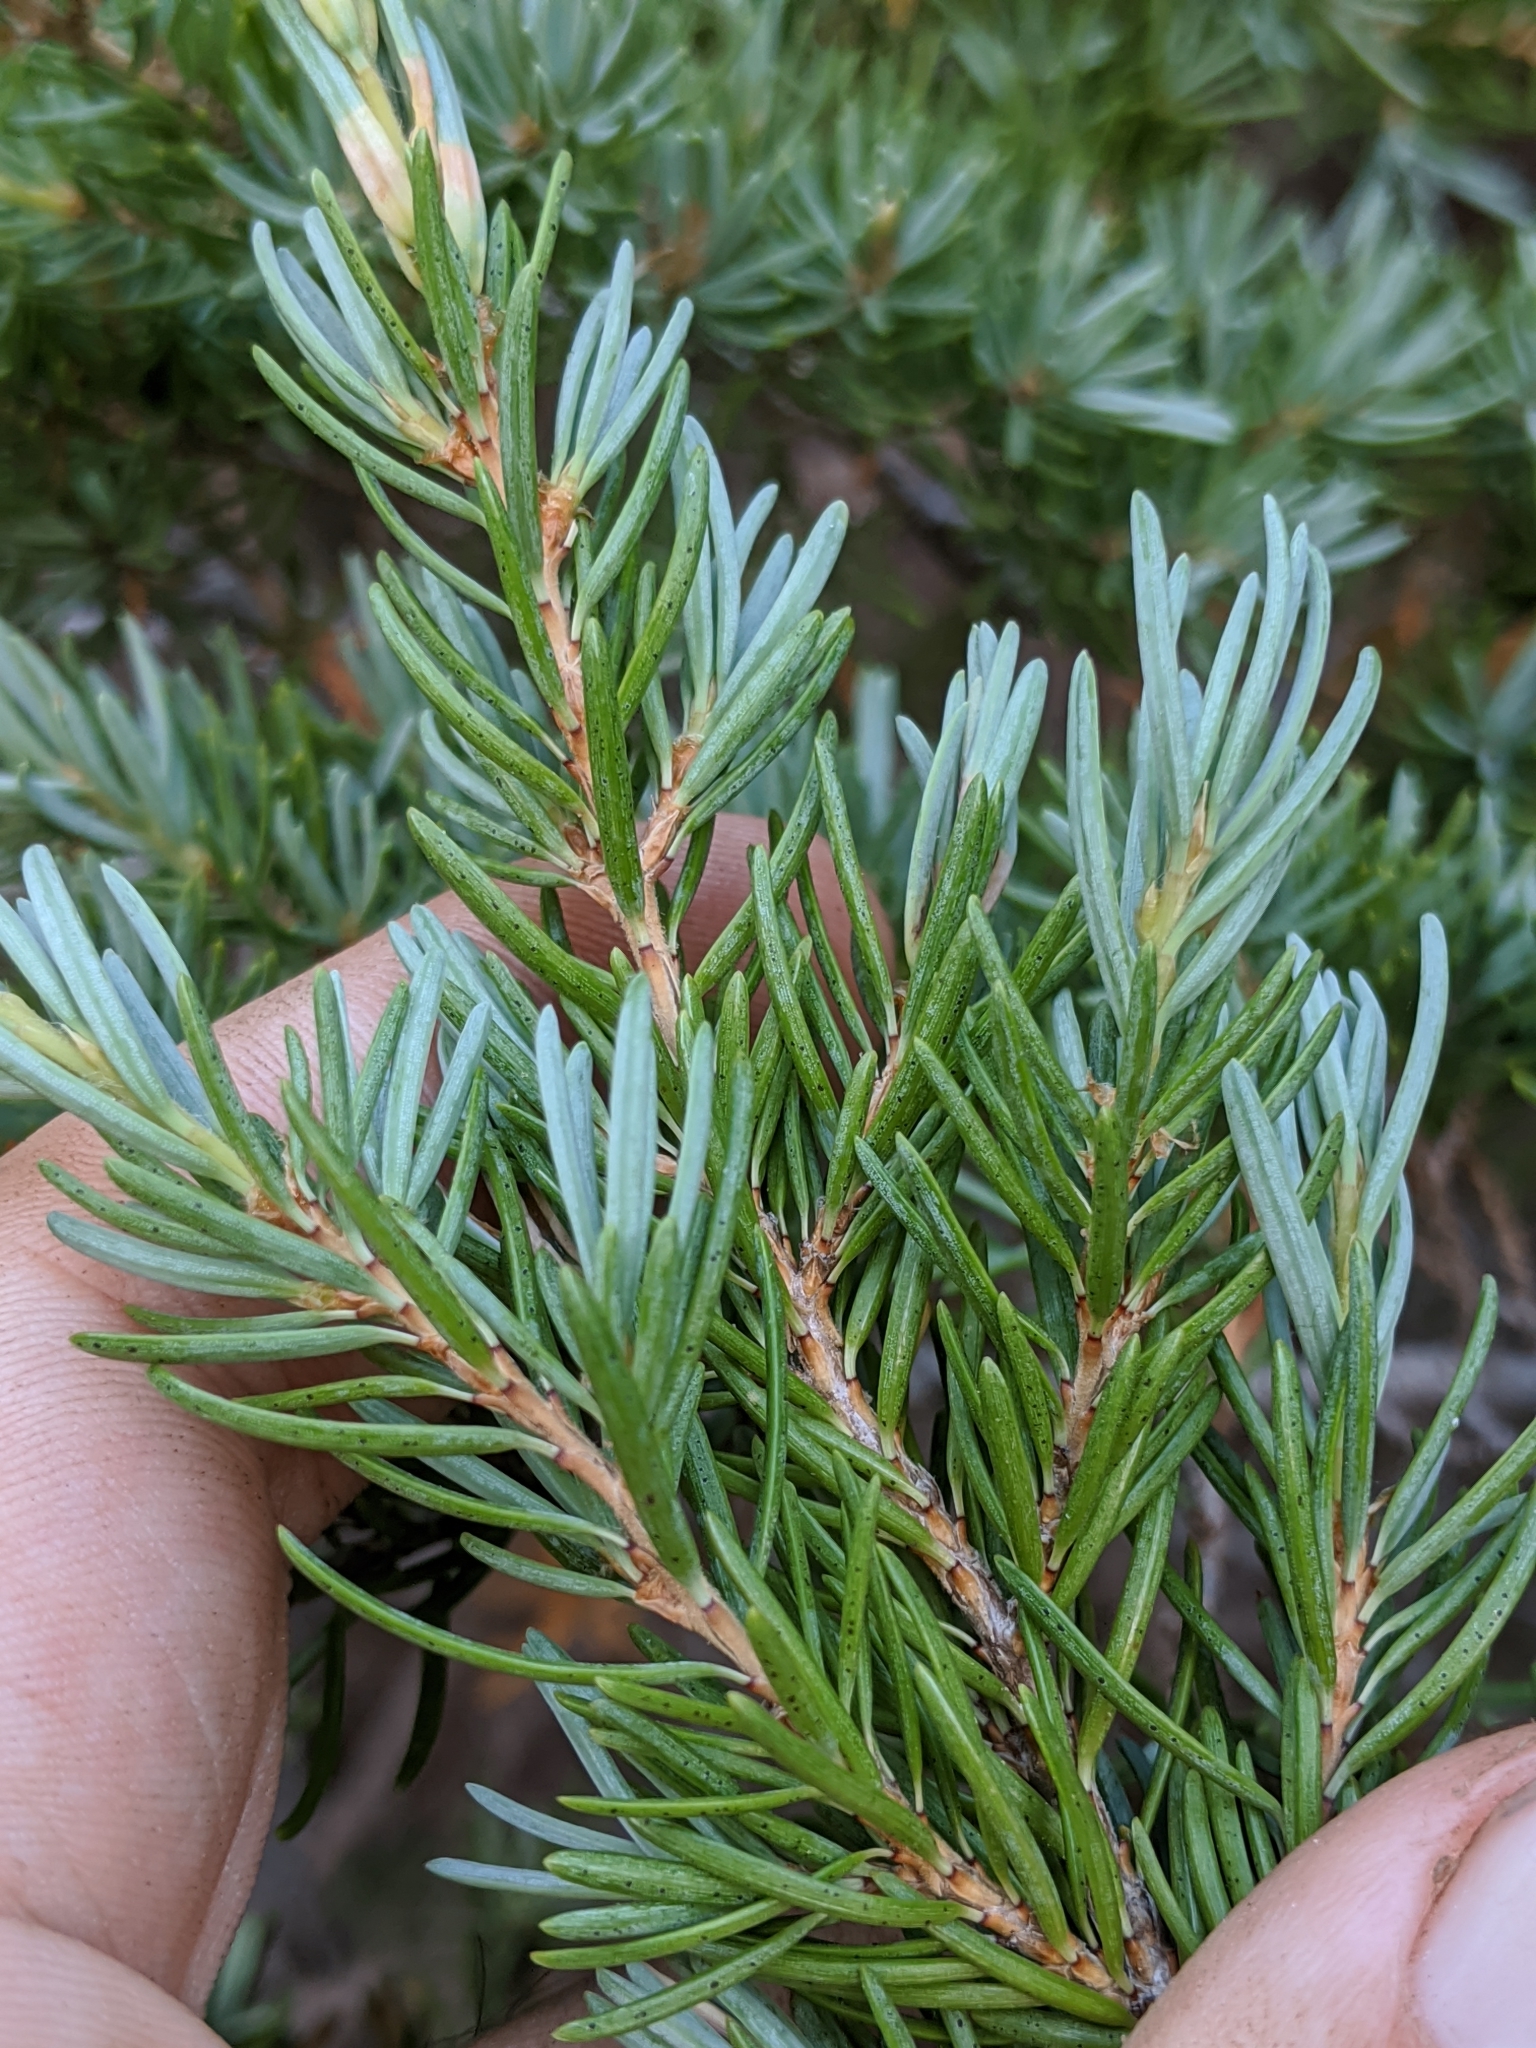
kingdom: Plantae
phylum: Tracheophyta
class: Pinopsida
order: Pinales
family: Pinaceae
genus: Tsuga
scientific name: Tsuga mertensiana
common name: Mountain hemlock
